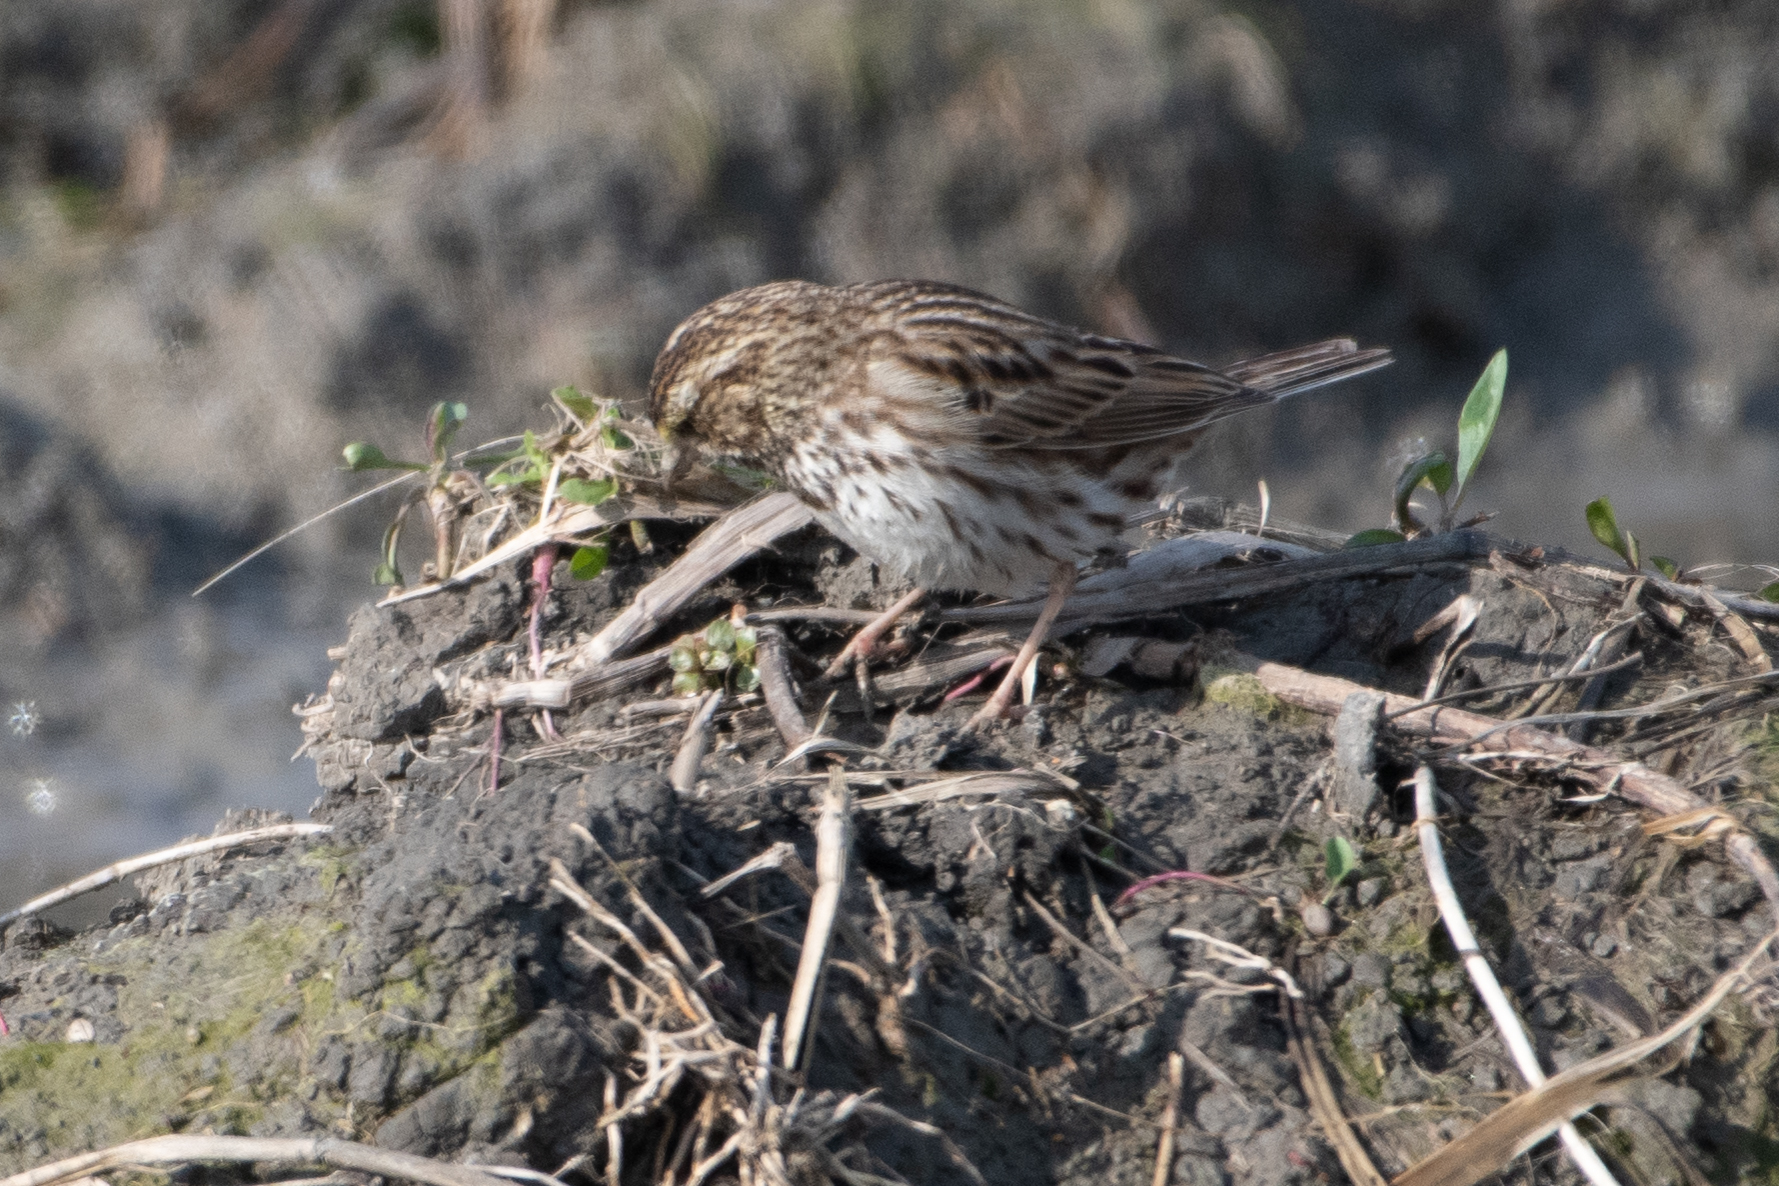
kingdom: Animalia
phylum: Chordata
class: Aves
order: Passeriformes
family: Passerellidae
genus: Passerculus
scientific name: Passerculus sandwichensis
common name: Savannah sparrow
